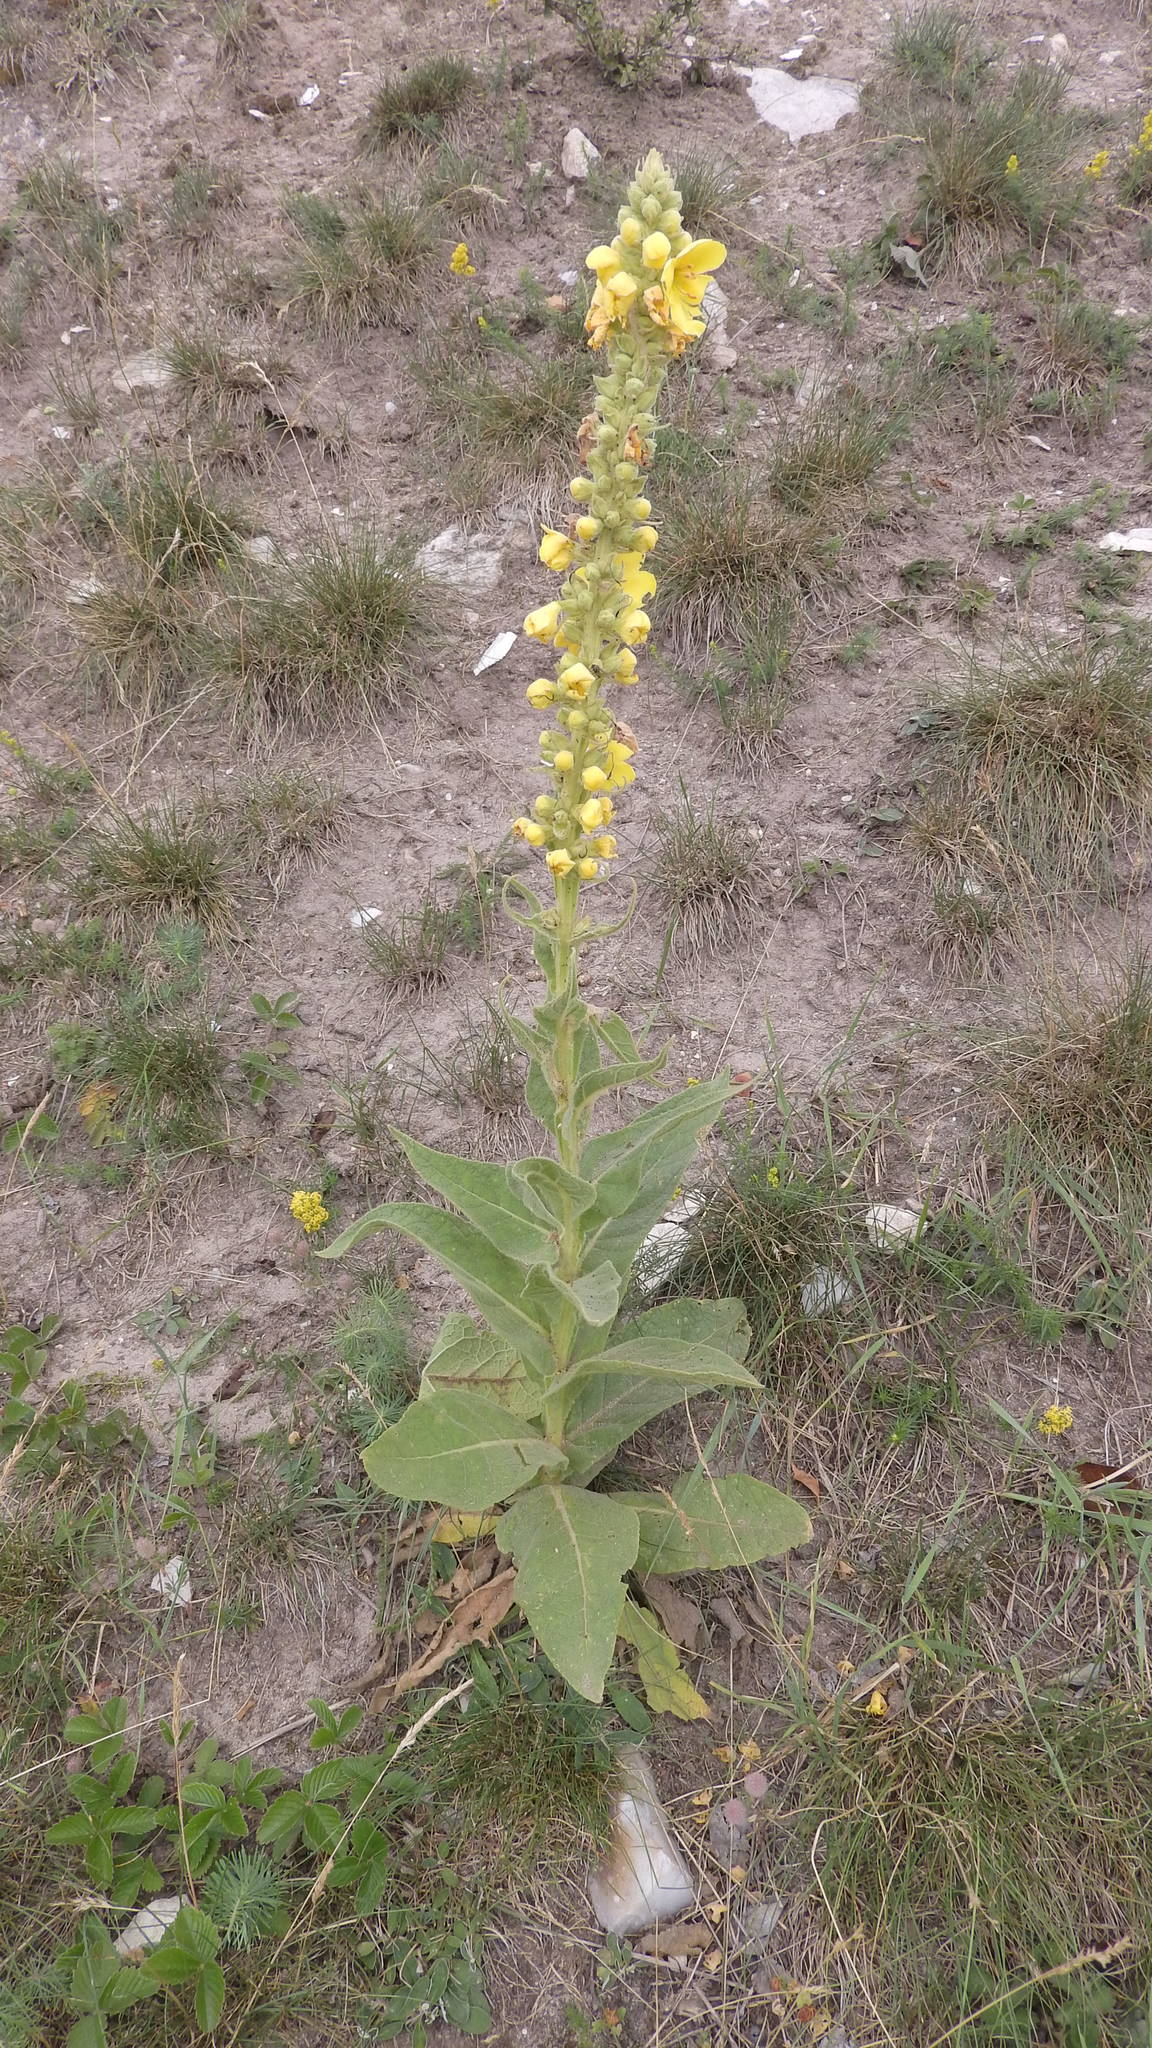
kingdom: Plantae
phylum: Tracheophyta
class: Magnoliopsida
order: Lamiales
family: Scrophulariaceae
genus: Verbascum
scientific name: Verbascum thapsus
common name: Common mullein
